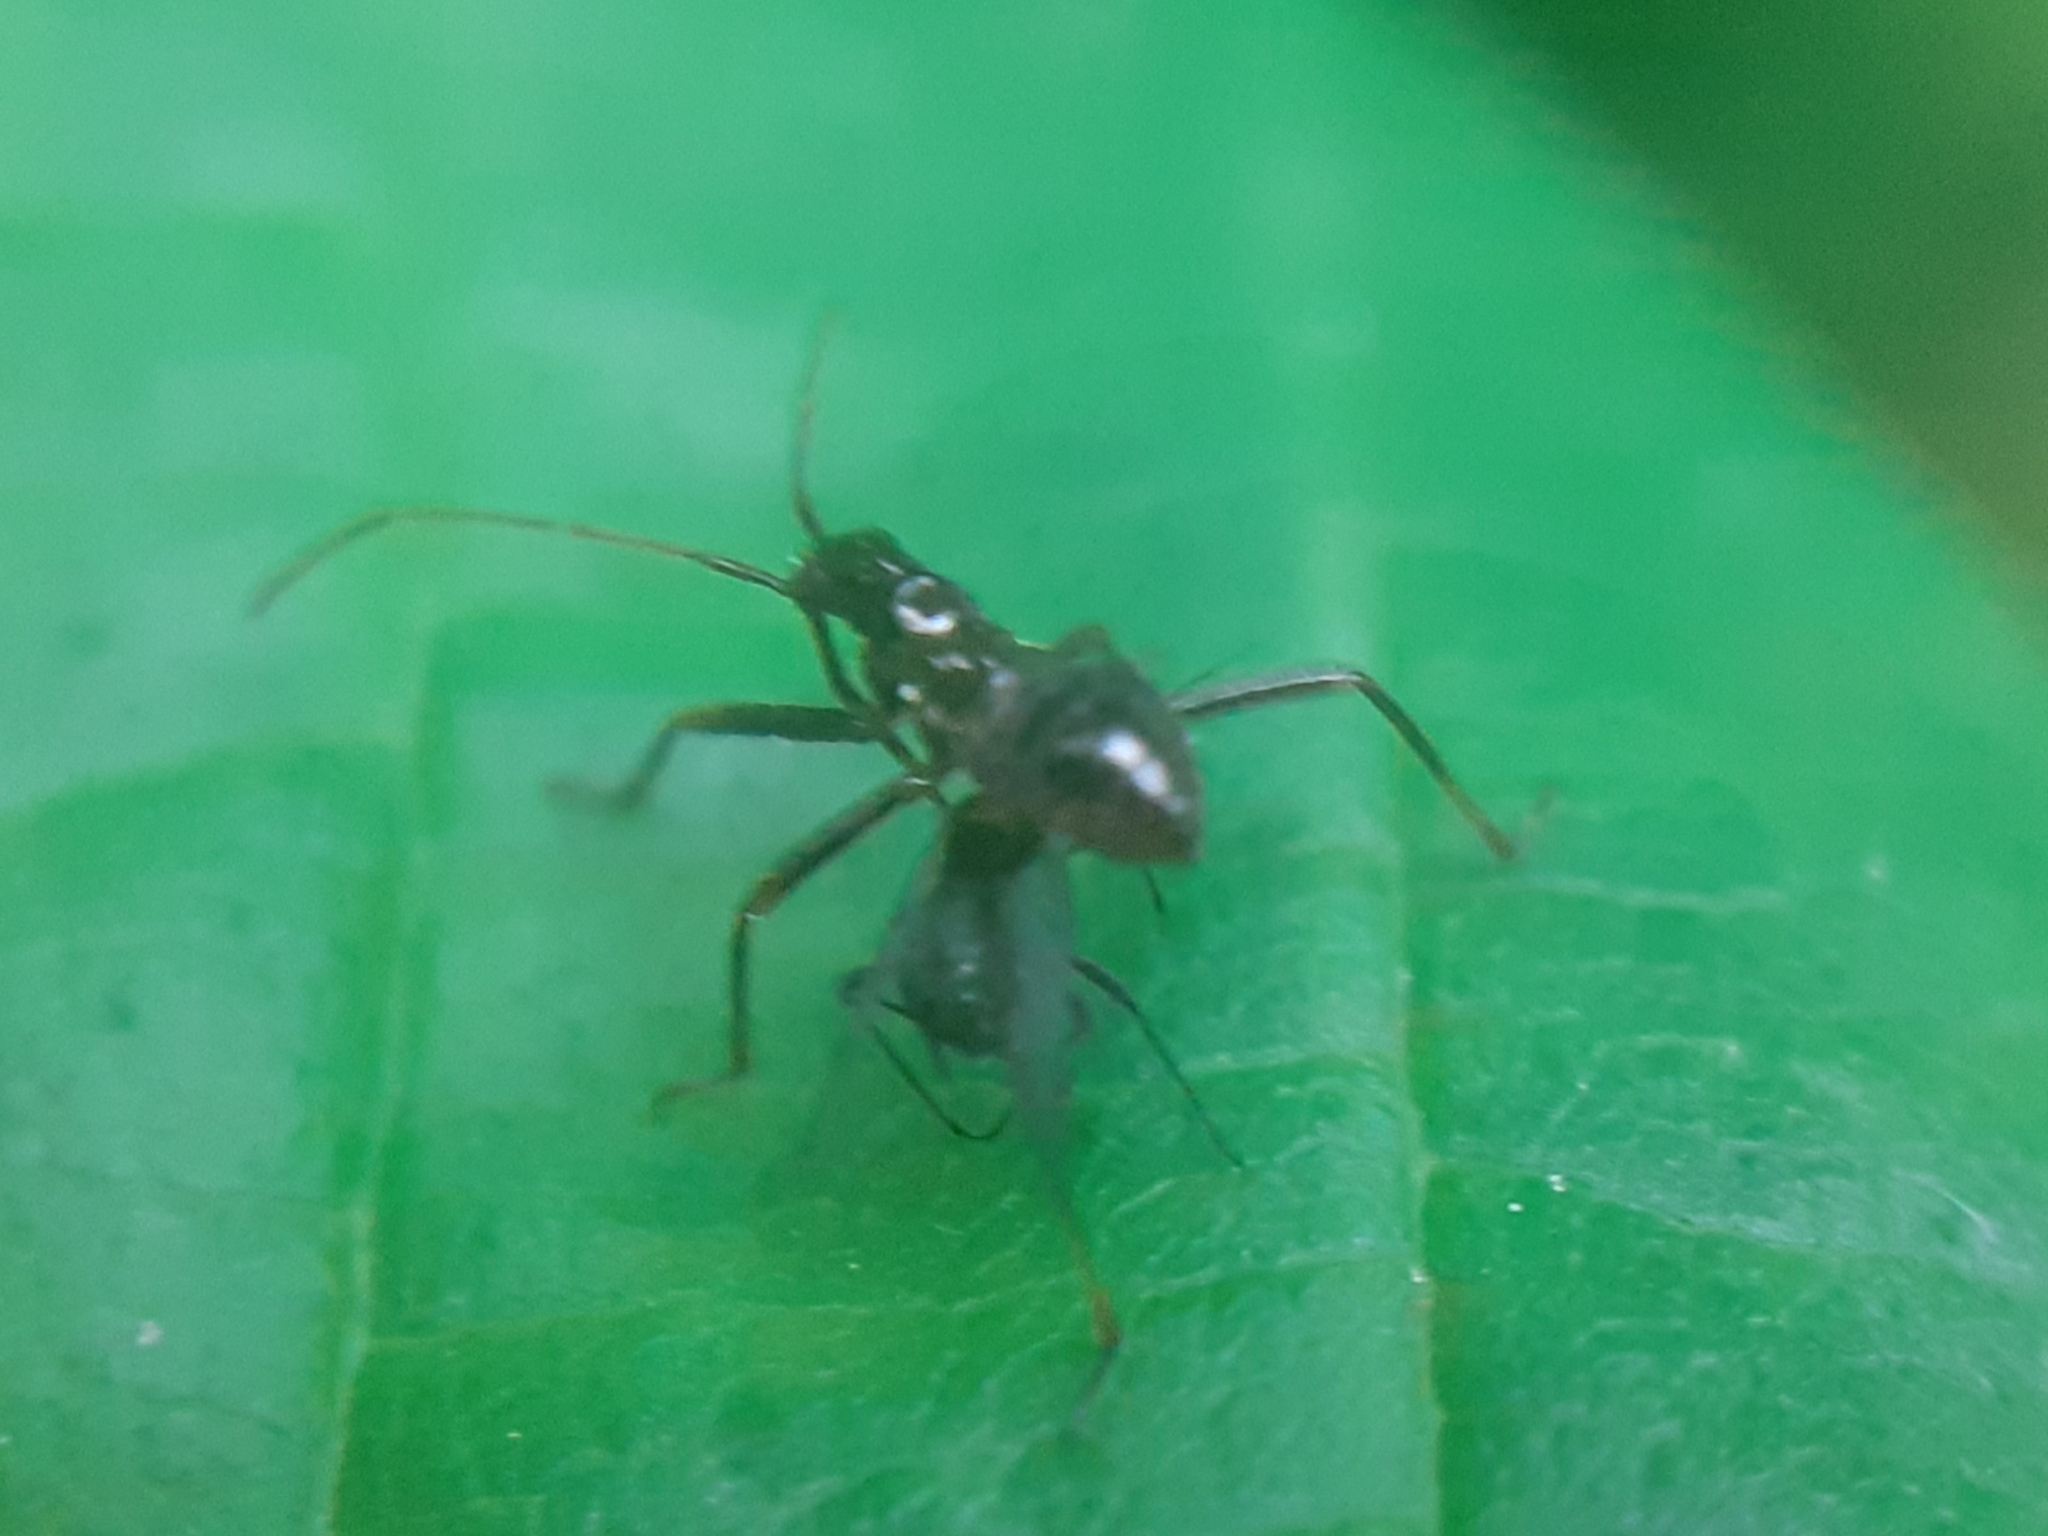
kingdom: Animalia
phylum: Arthropoda
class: Insecta
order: Hemiptera
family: Nabidae
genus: Himacerus
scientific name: Himacerus apterus
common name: Tree damsel bug
